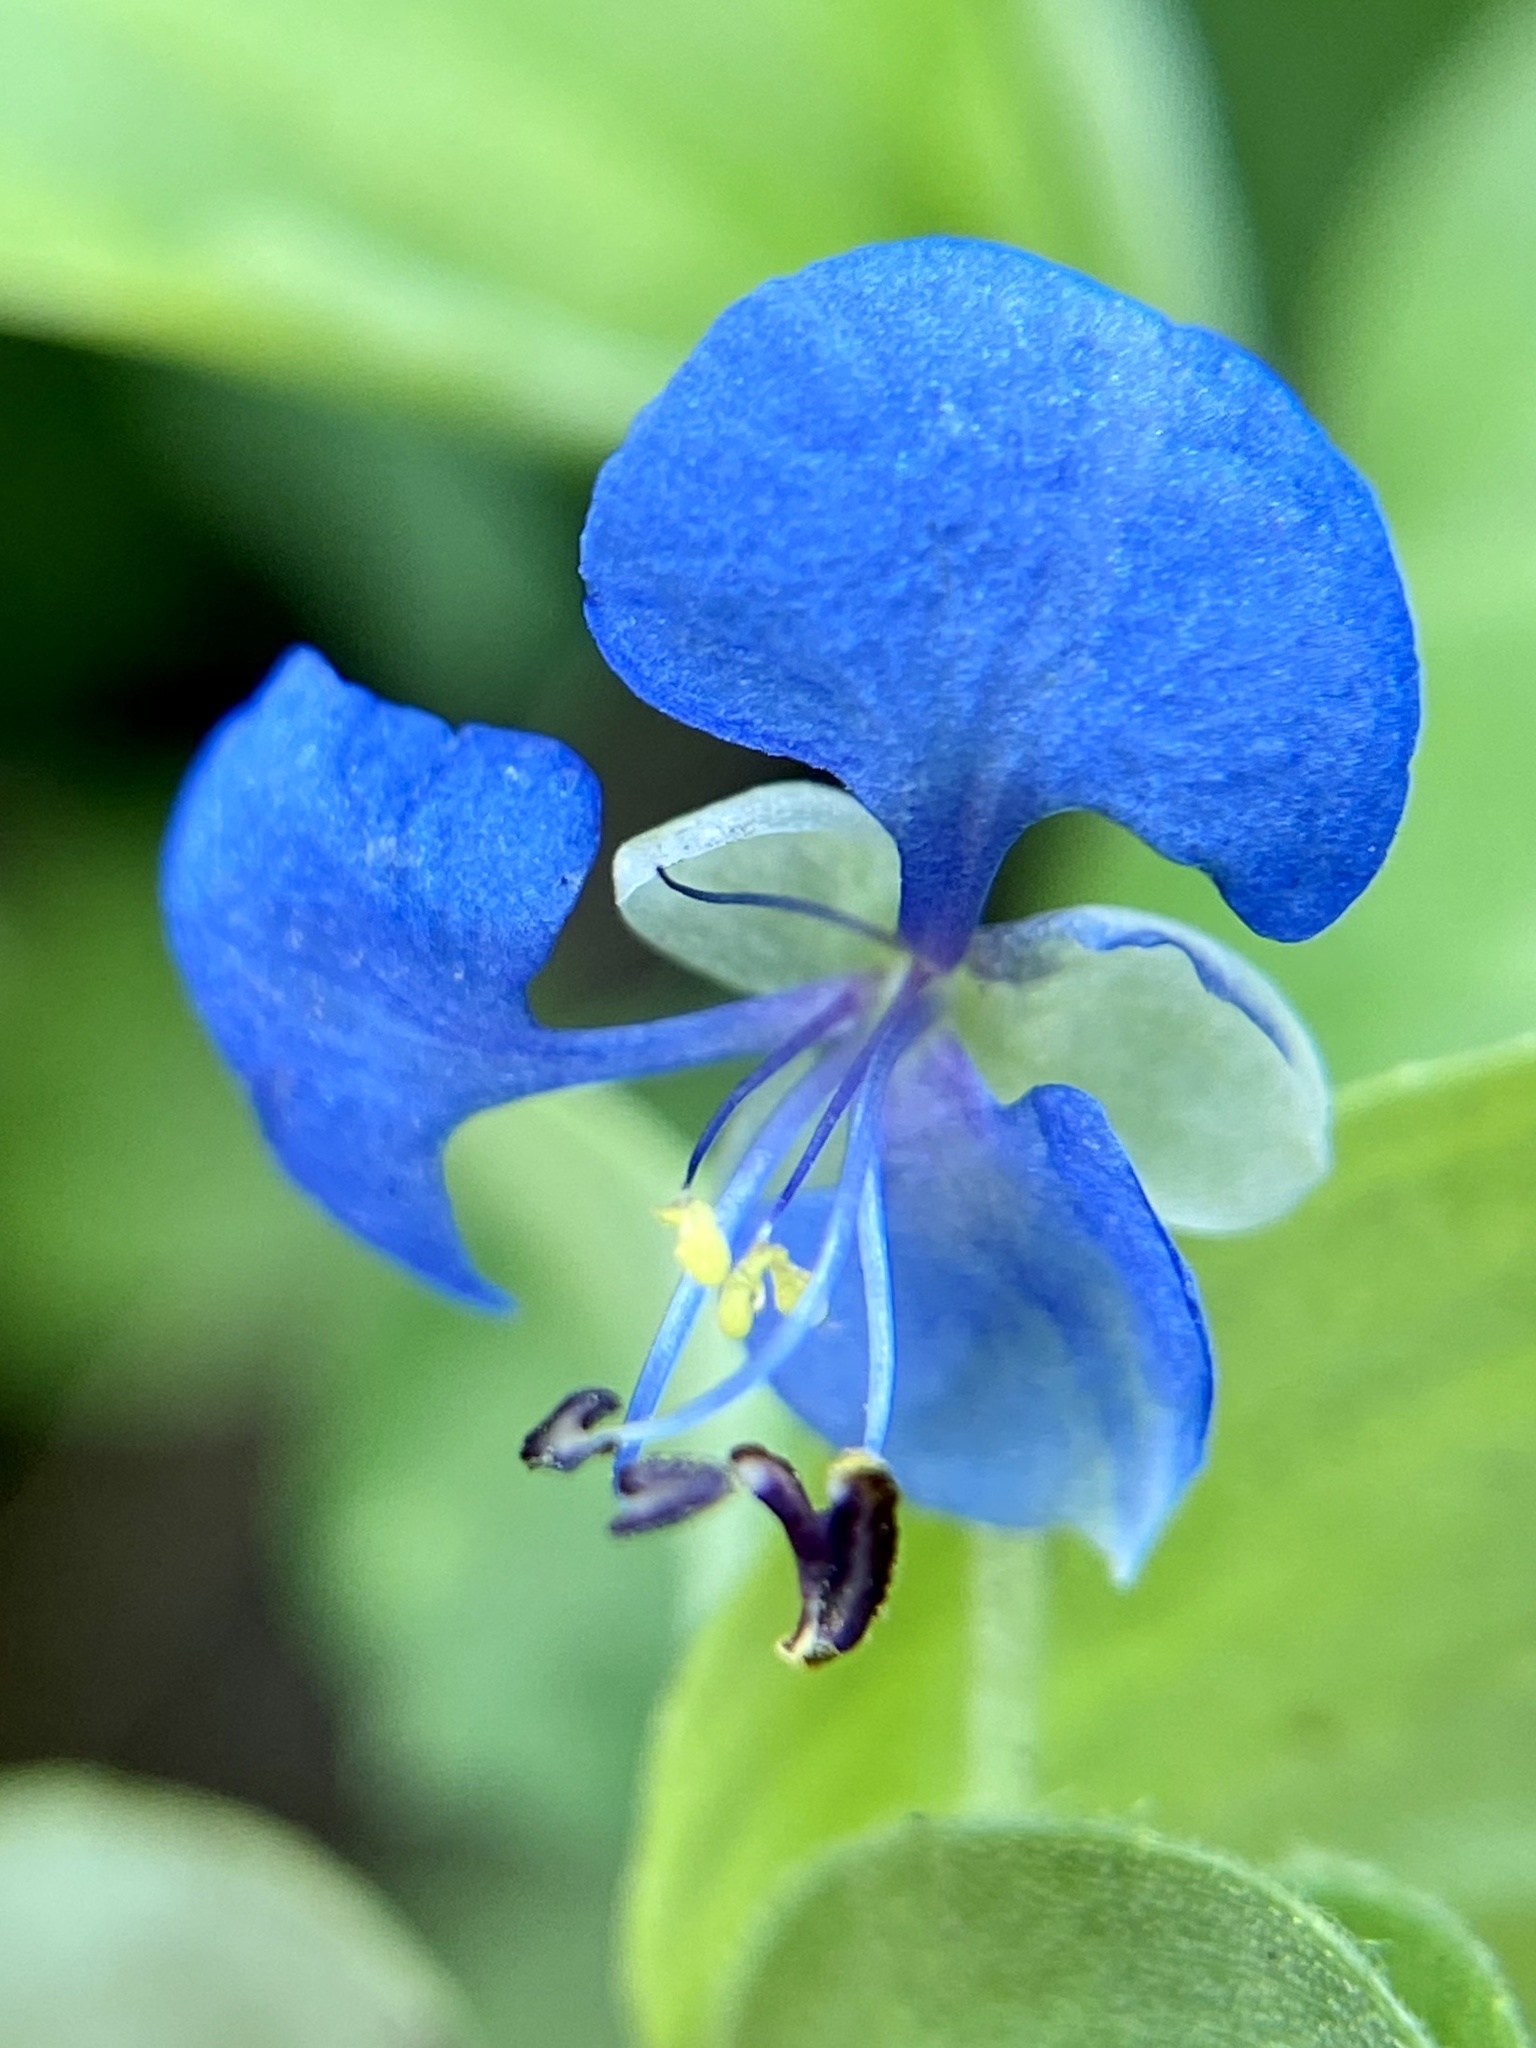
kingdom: Plantae
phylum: Tracheophyta
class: Liliopsida
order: Commelinales
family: Commelinaceae
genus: Commelina
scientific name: Commelina diffusa
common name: Climbing dayflower
